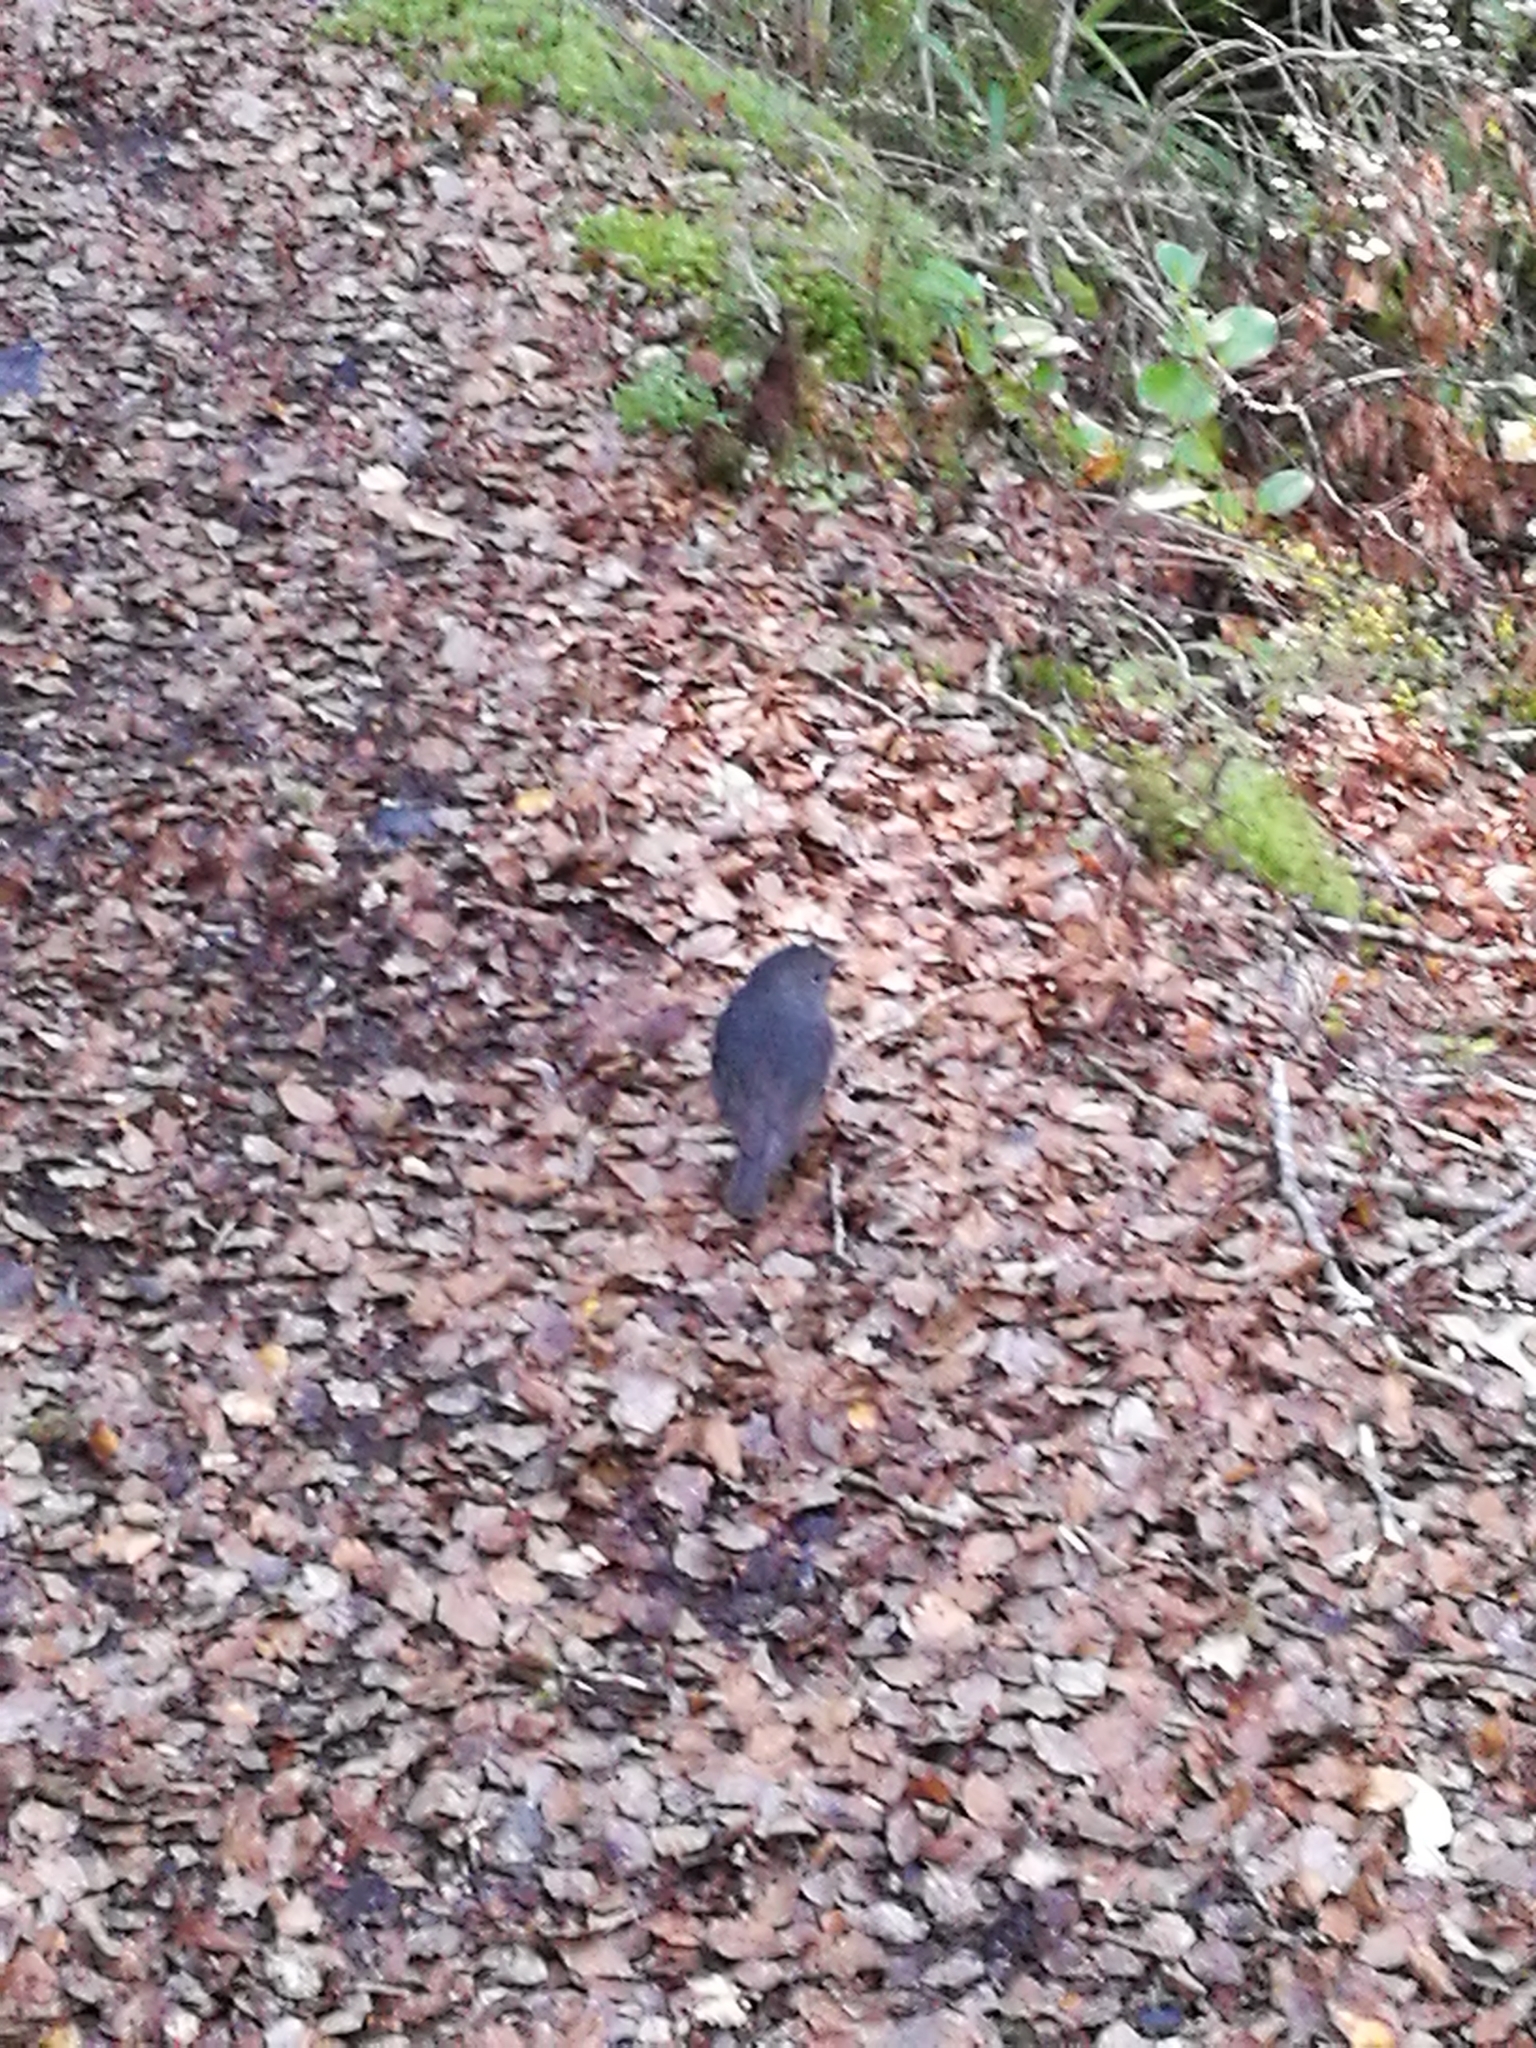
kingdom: Animalia
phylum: Chordata
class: Aves
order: Passeriformes
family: Petroicidae
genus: Petroica
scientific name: Petroica australis
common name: New zealand robin
